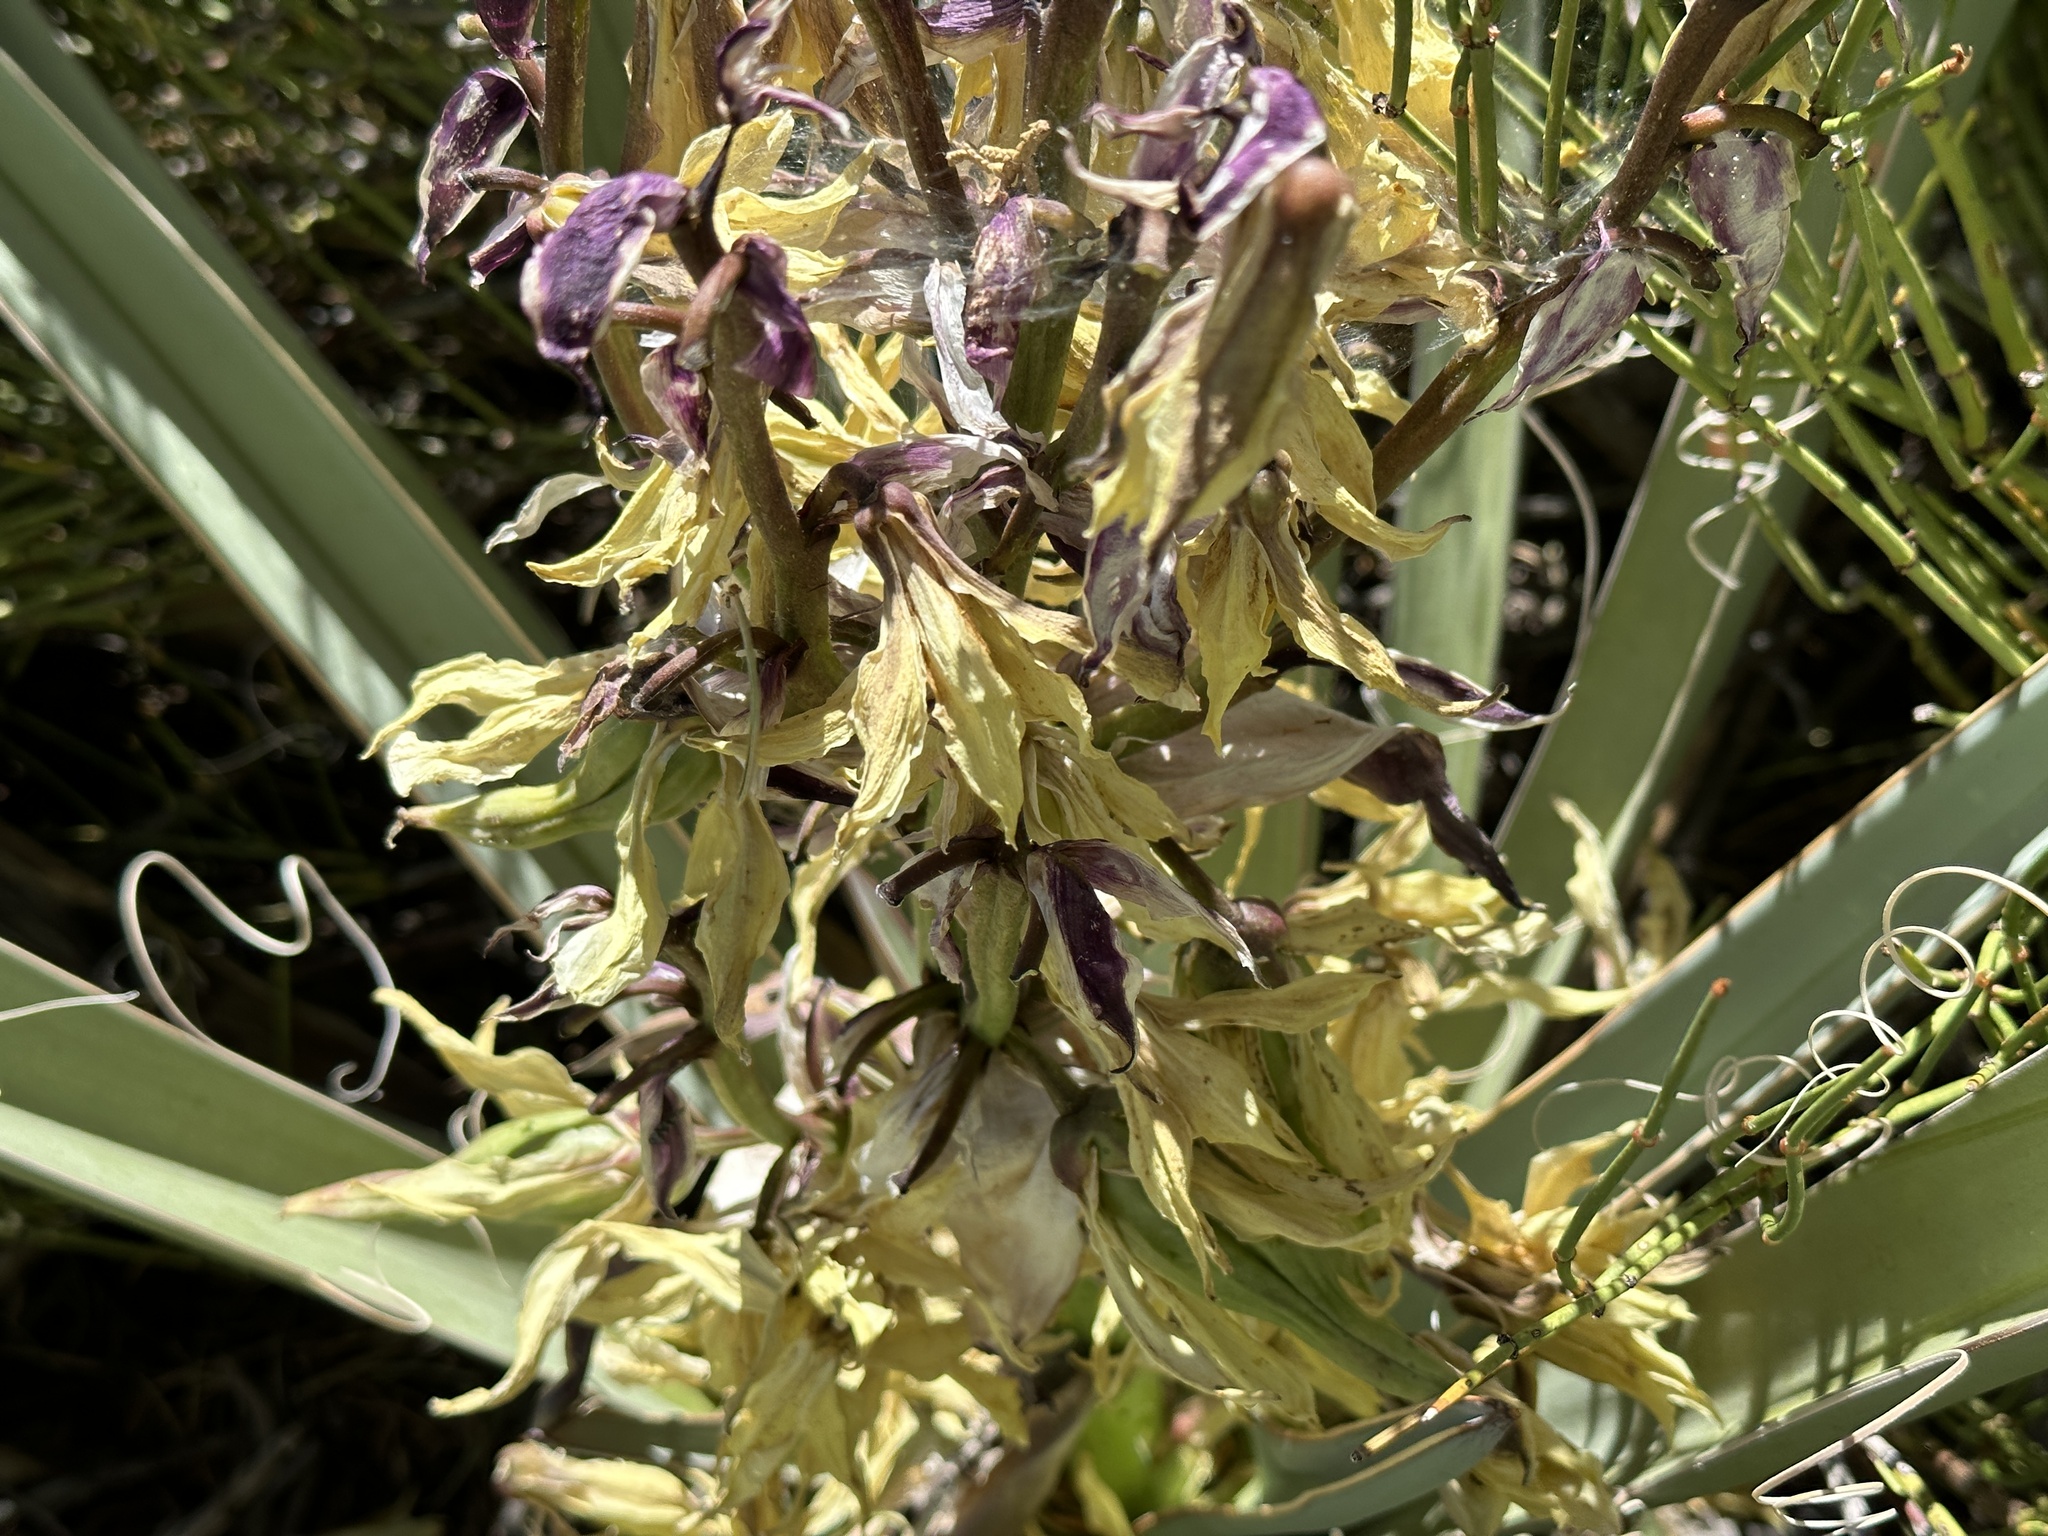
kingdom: Plantae
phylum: Tracheophyta
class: Liliopsida
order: Asparagales
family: Asparagaceae
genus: Yucca
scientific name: Yucca baccata
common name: Banana yucca
